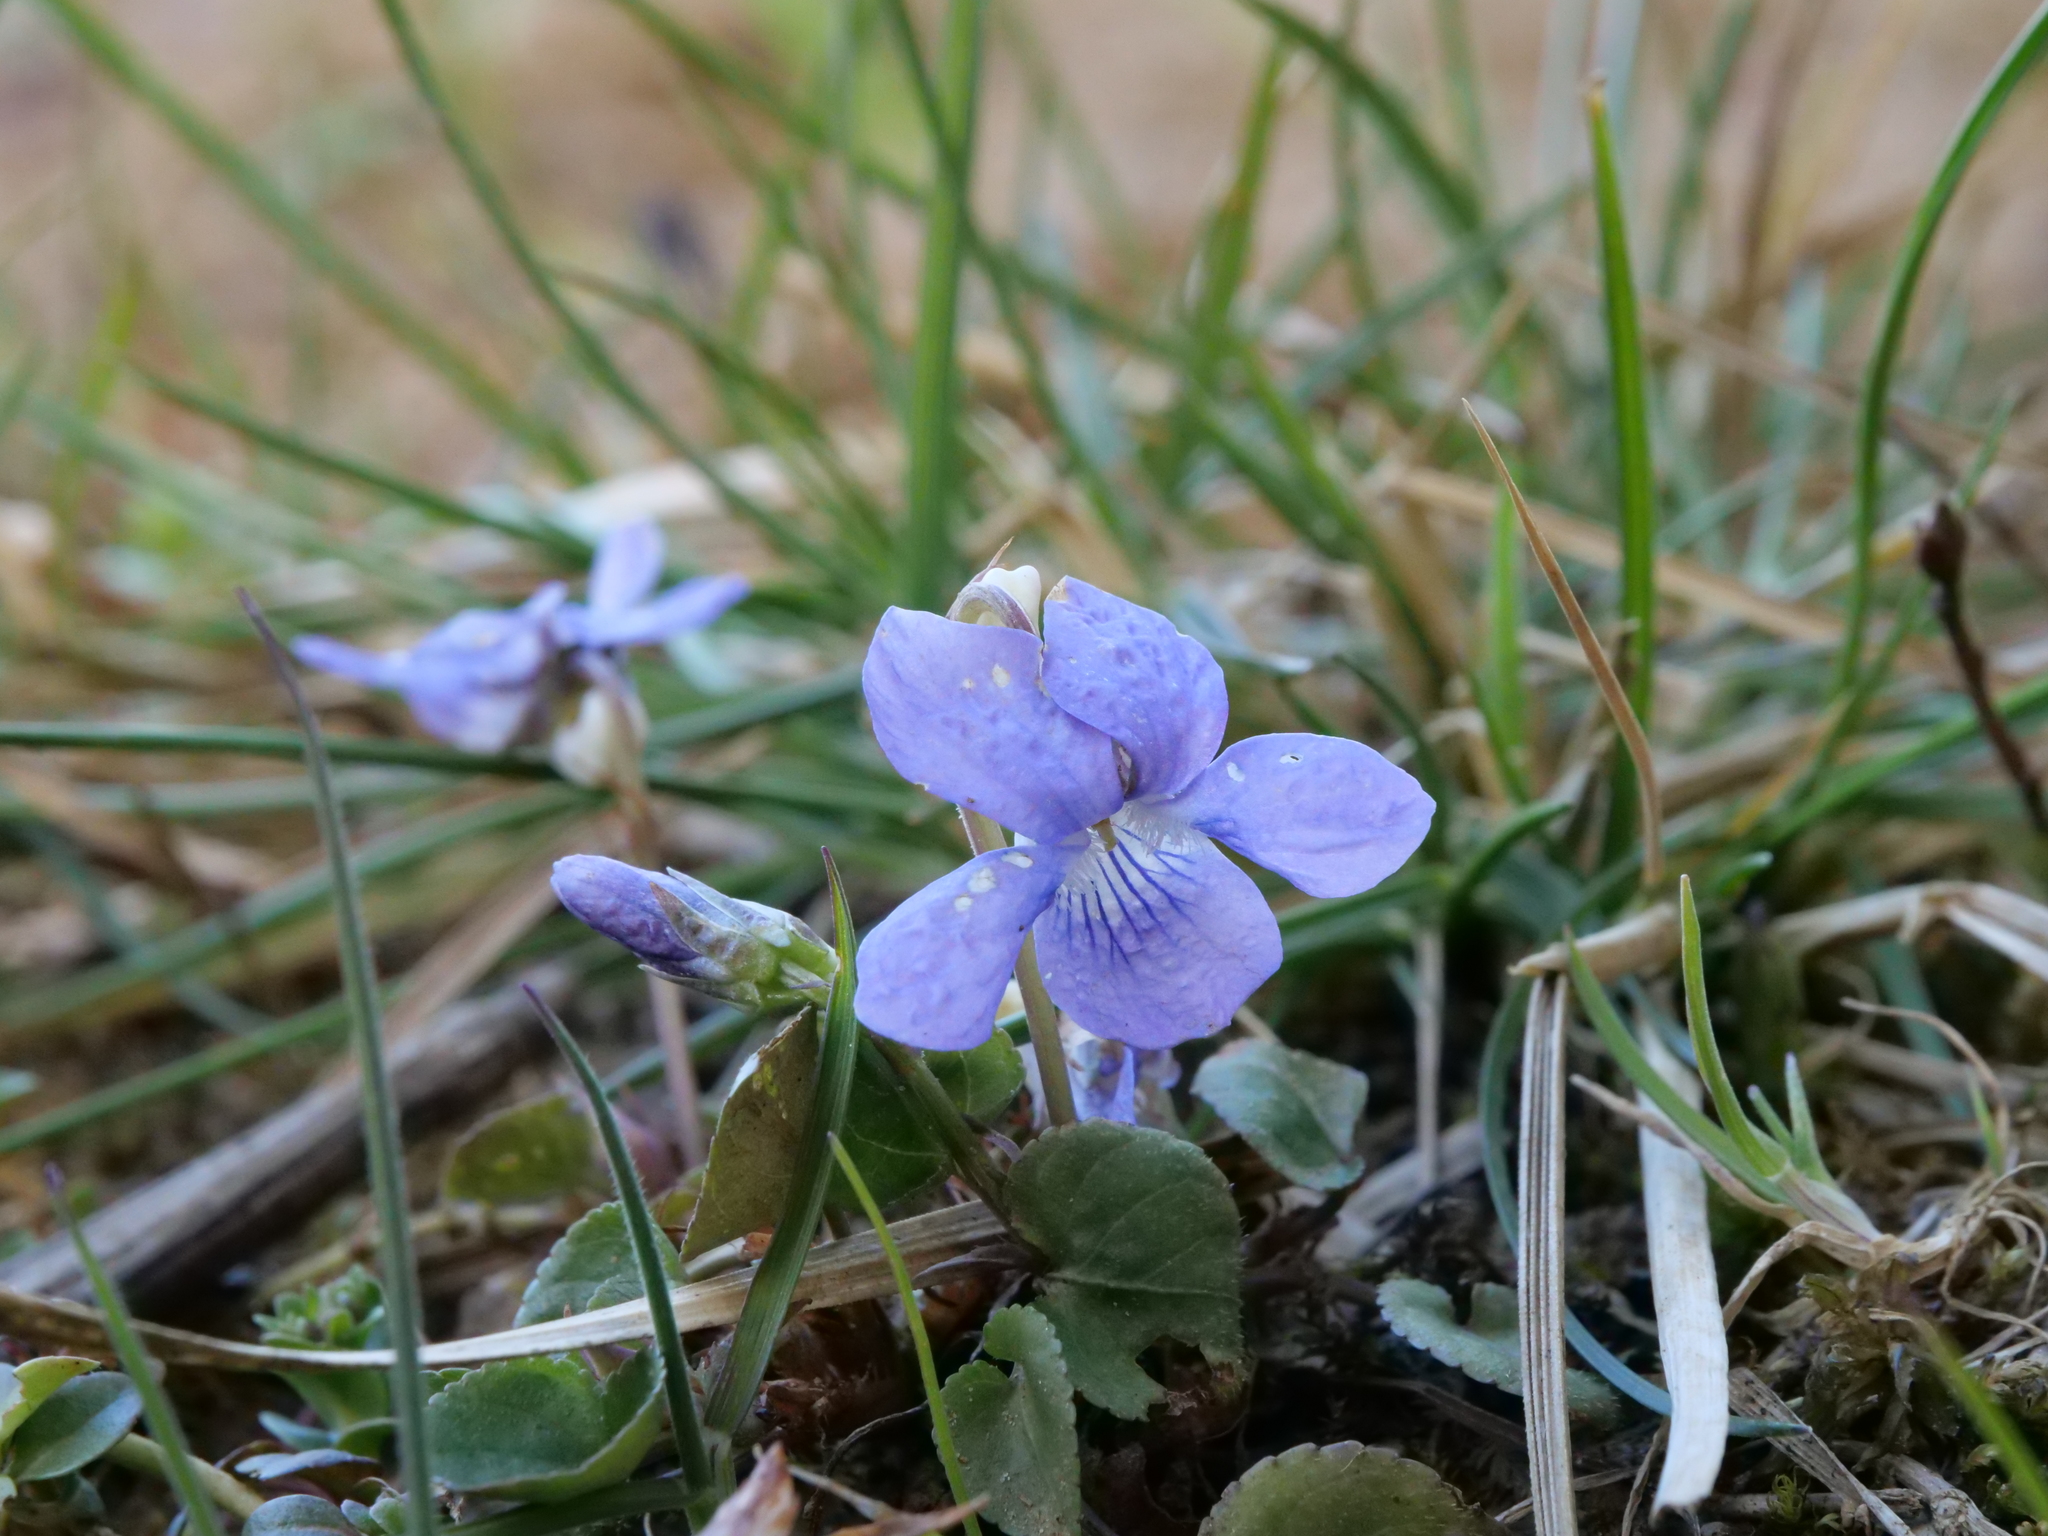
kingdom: Plantae
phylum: Tracheophyta
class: Magnoliopsida
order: Malpighiales
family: Violaceae
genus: Viola
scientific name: Viola riviniana
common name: Common dog-violet
